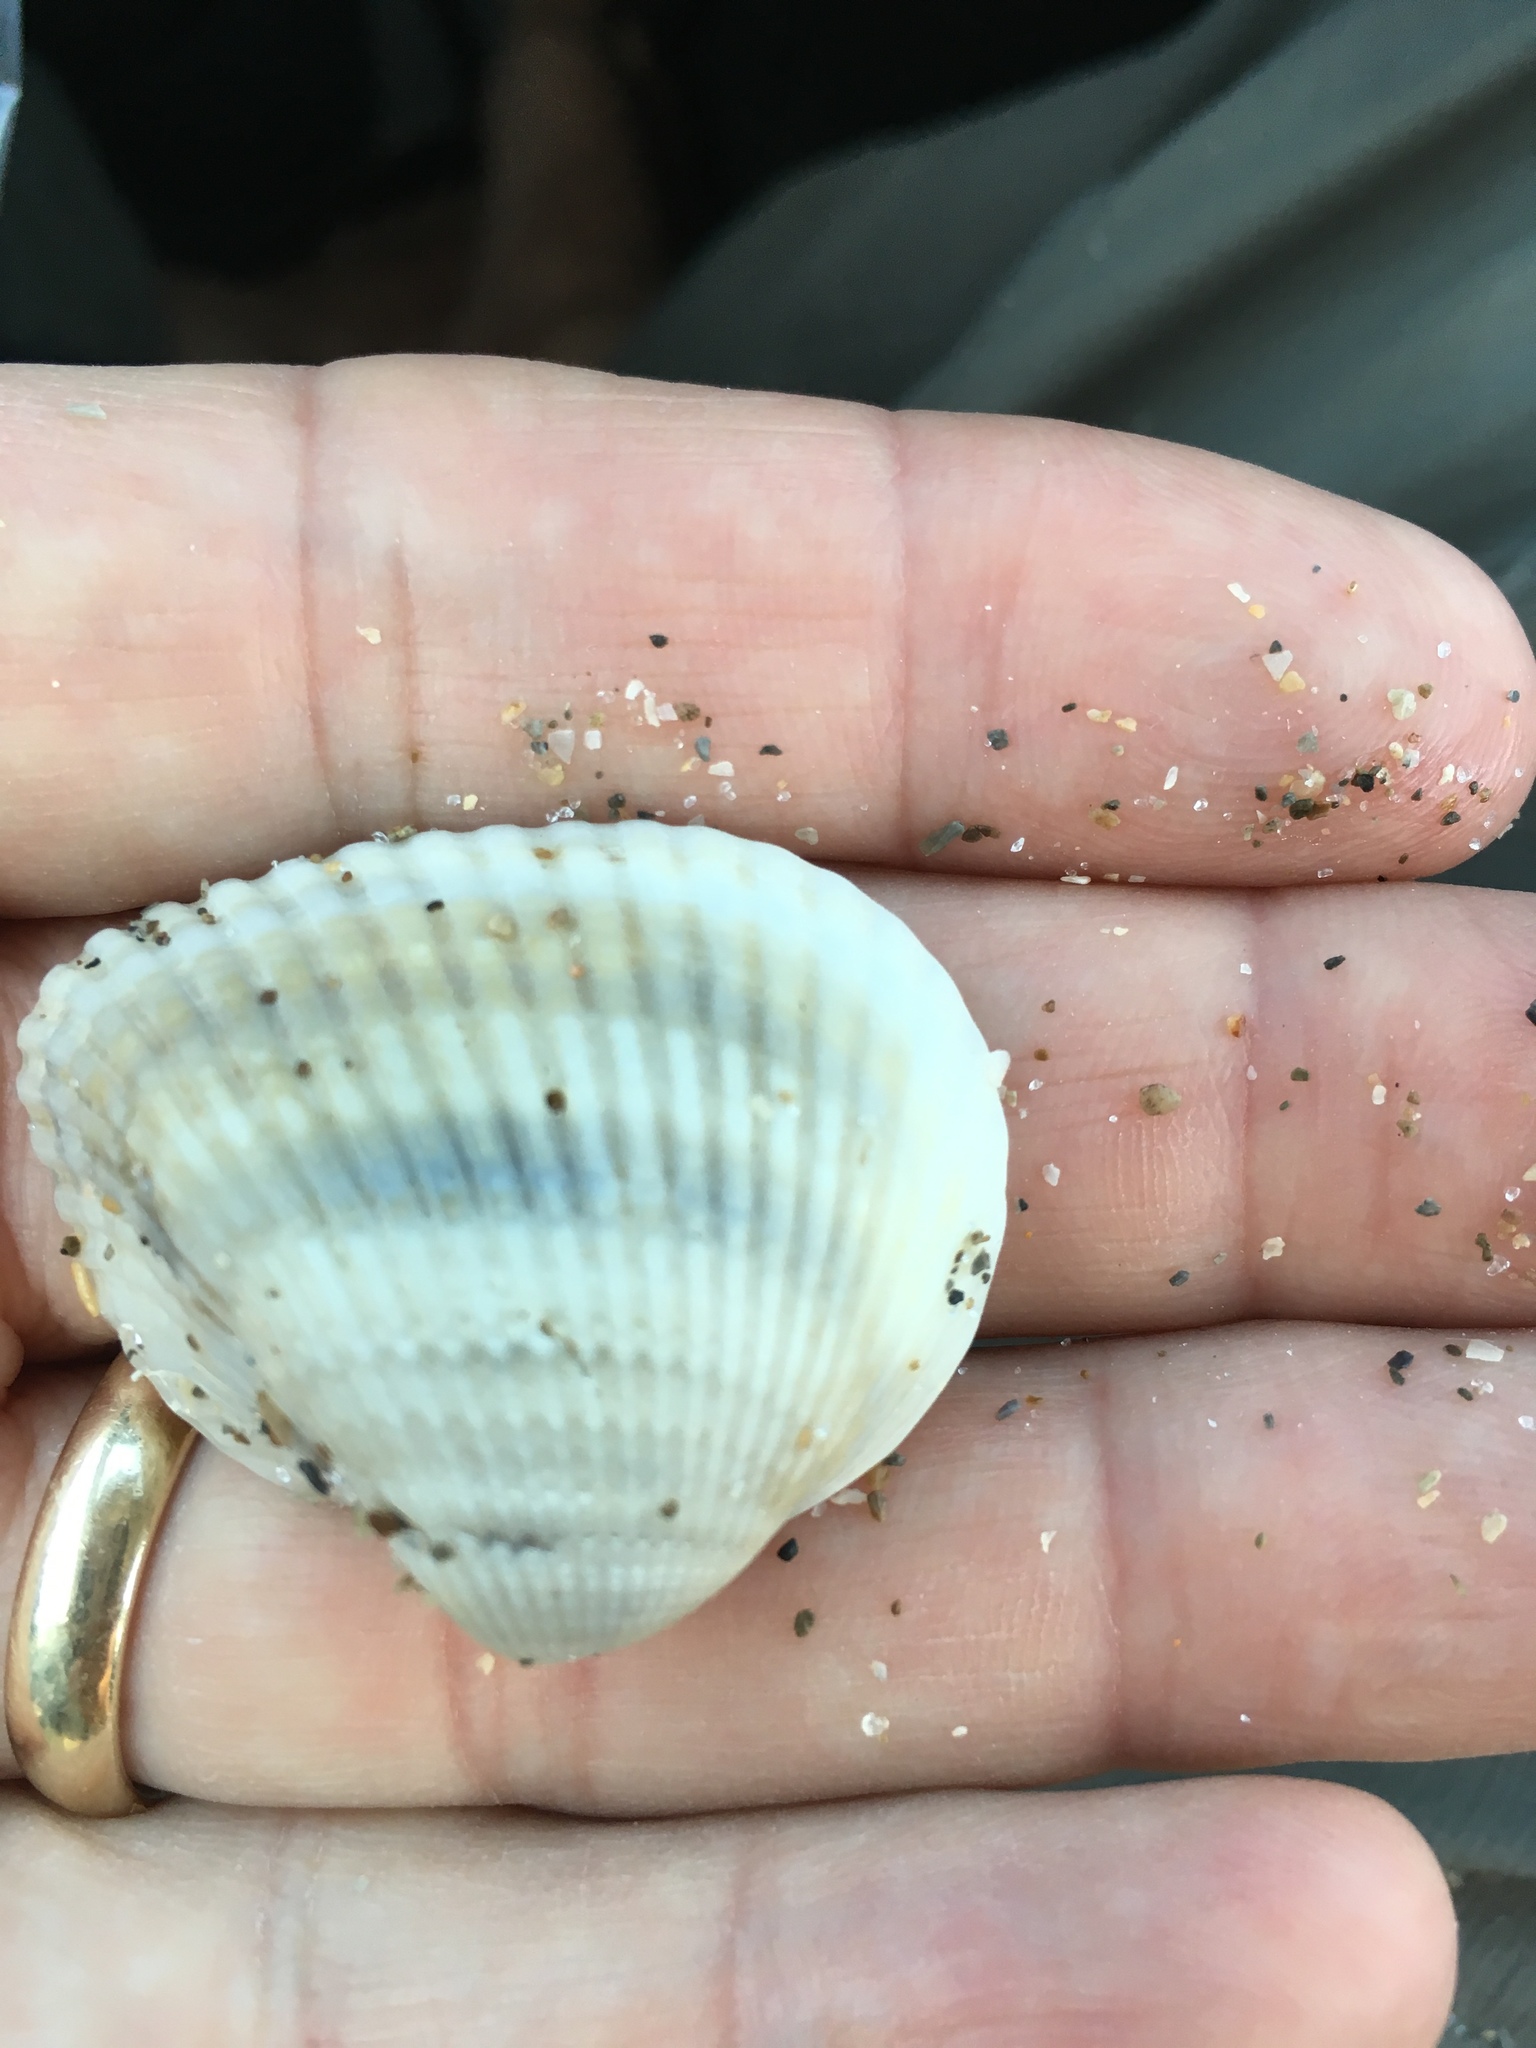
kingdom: Animalia
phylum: Mollusca
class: Bivalvia
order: Arcida
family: Noetiidae
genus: Noetia
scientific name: Noetia ponderosa
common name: Ponderous ark
